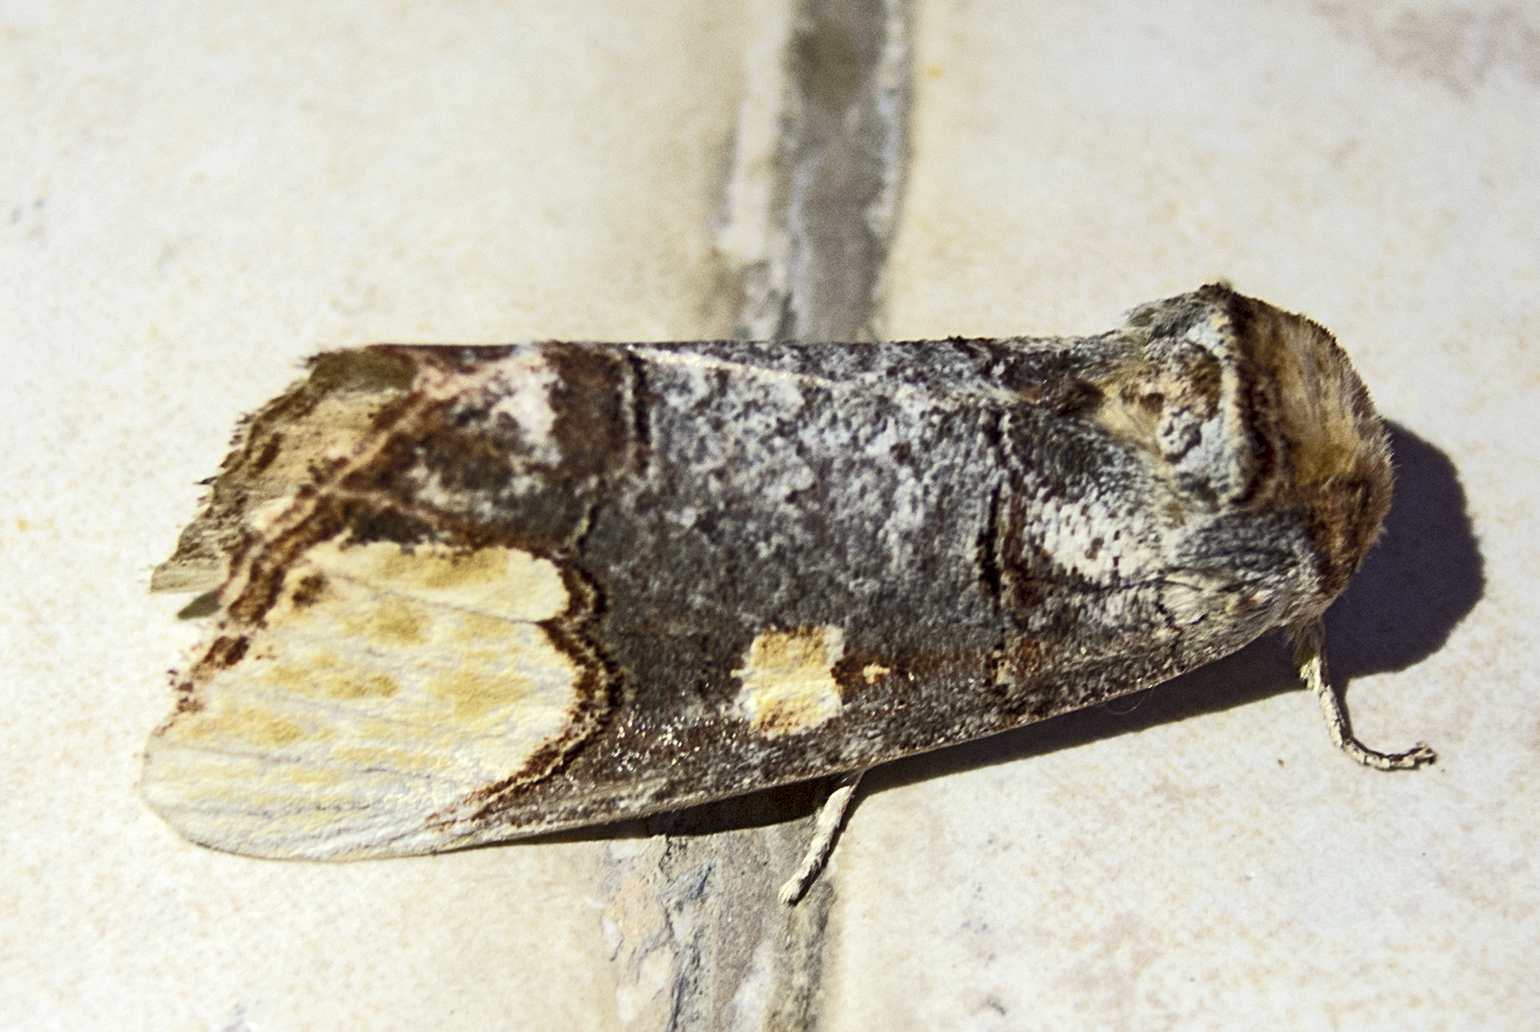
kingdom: Animalia
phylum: Arthropoda
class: Insecta
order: Lepidoptera
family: Notodontidae
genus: Phalera
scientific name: Phalera bucephaloides
